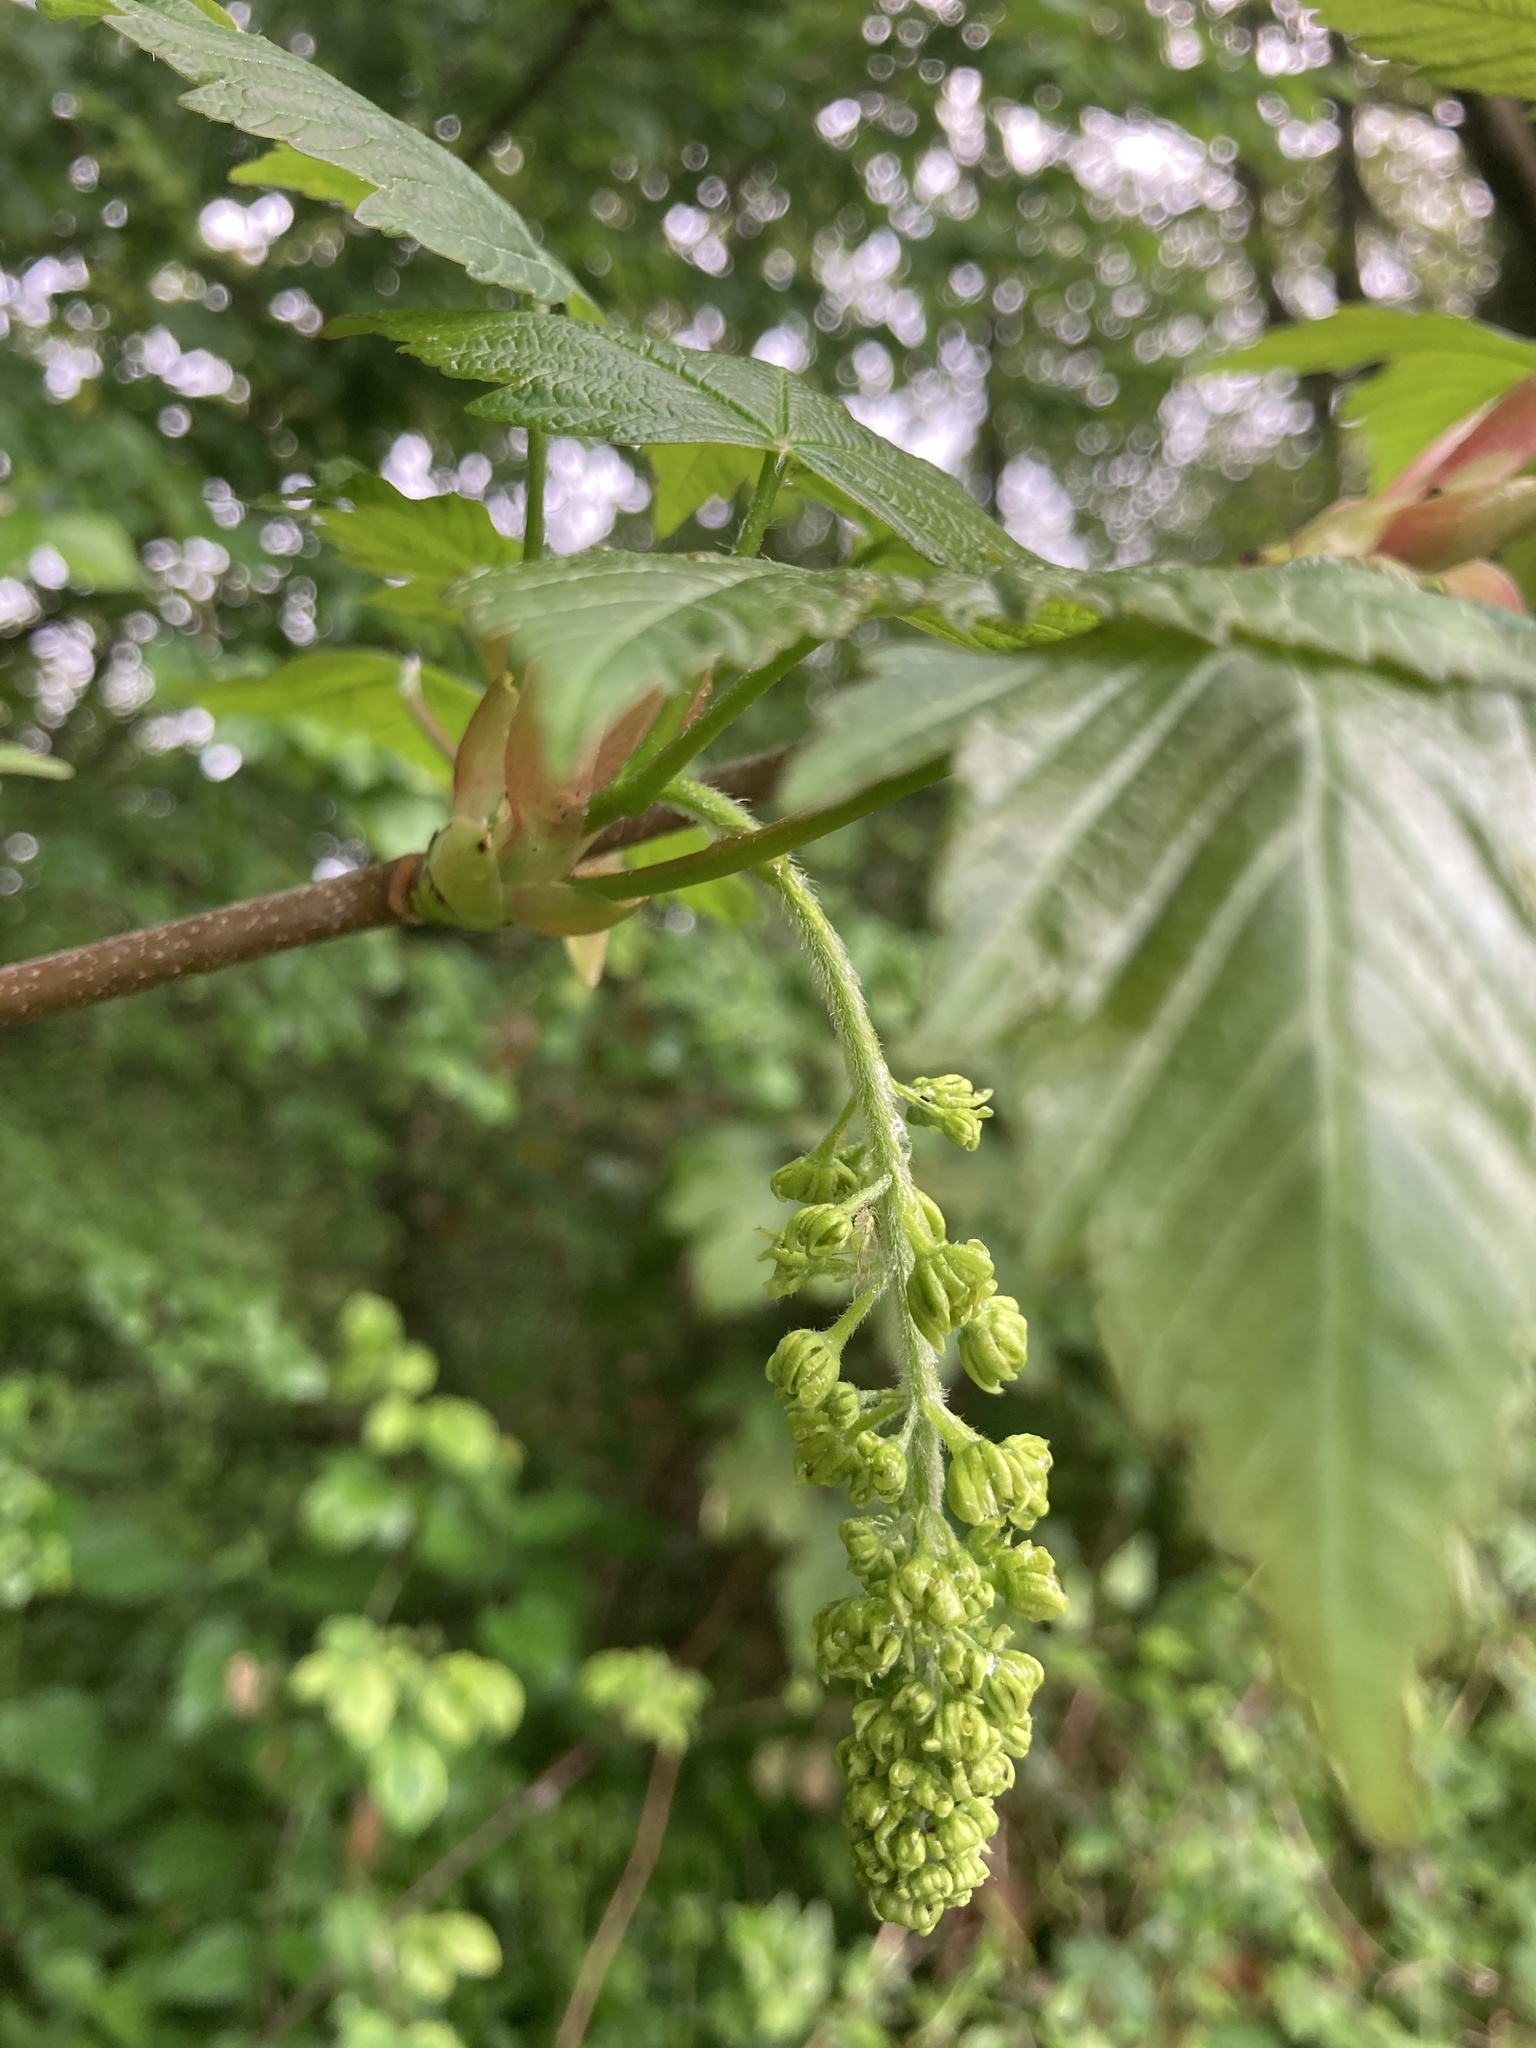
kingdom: Plantae
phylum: Tracheophyta
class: Magnoliopsida
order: Sapindales
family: Sapindaceae
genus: Acer
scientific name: Acer pseudoplatanus
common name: Sycamore
